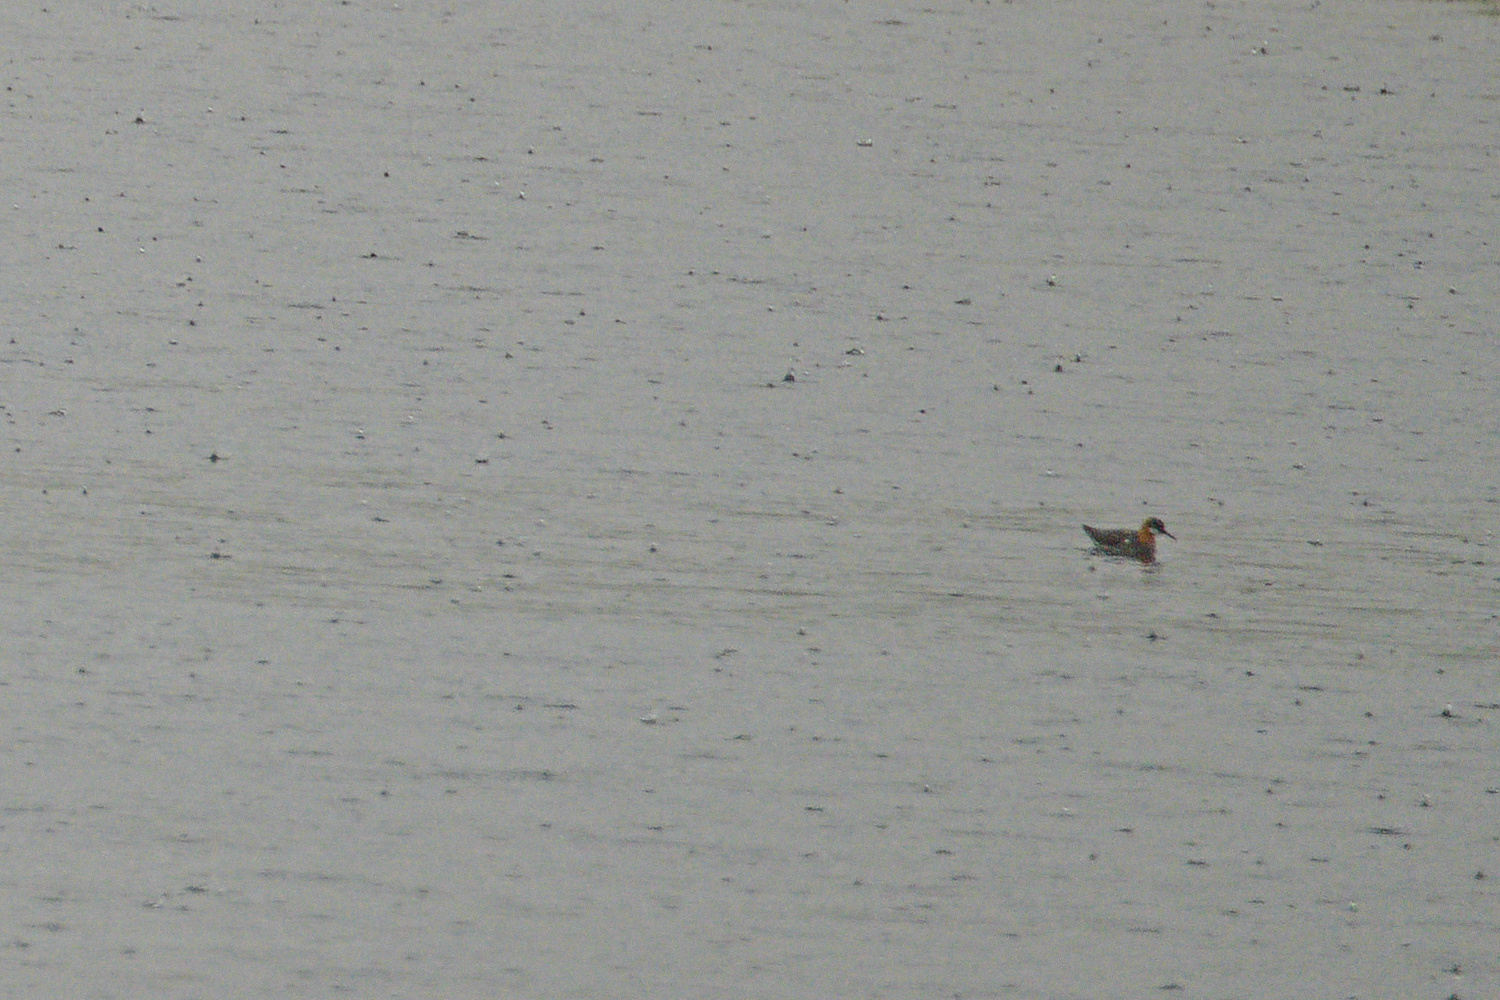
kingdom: Animalia
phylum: Chordata
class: Aves
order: Charadriiformes
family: Scolopacidae
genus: Phalaropus
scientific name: Phalaropus lobatus
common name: Red-necked phalarope
